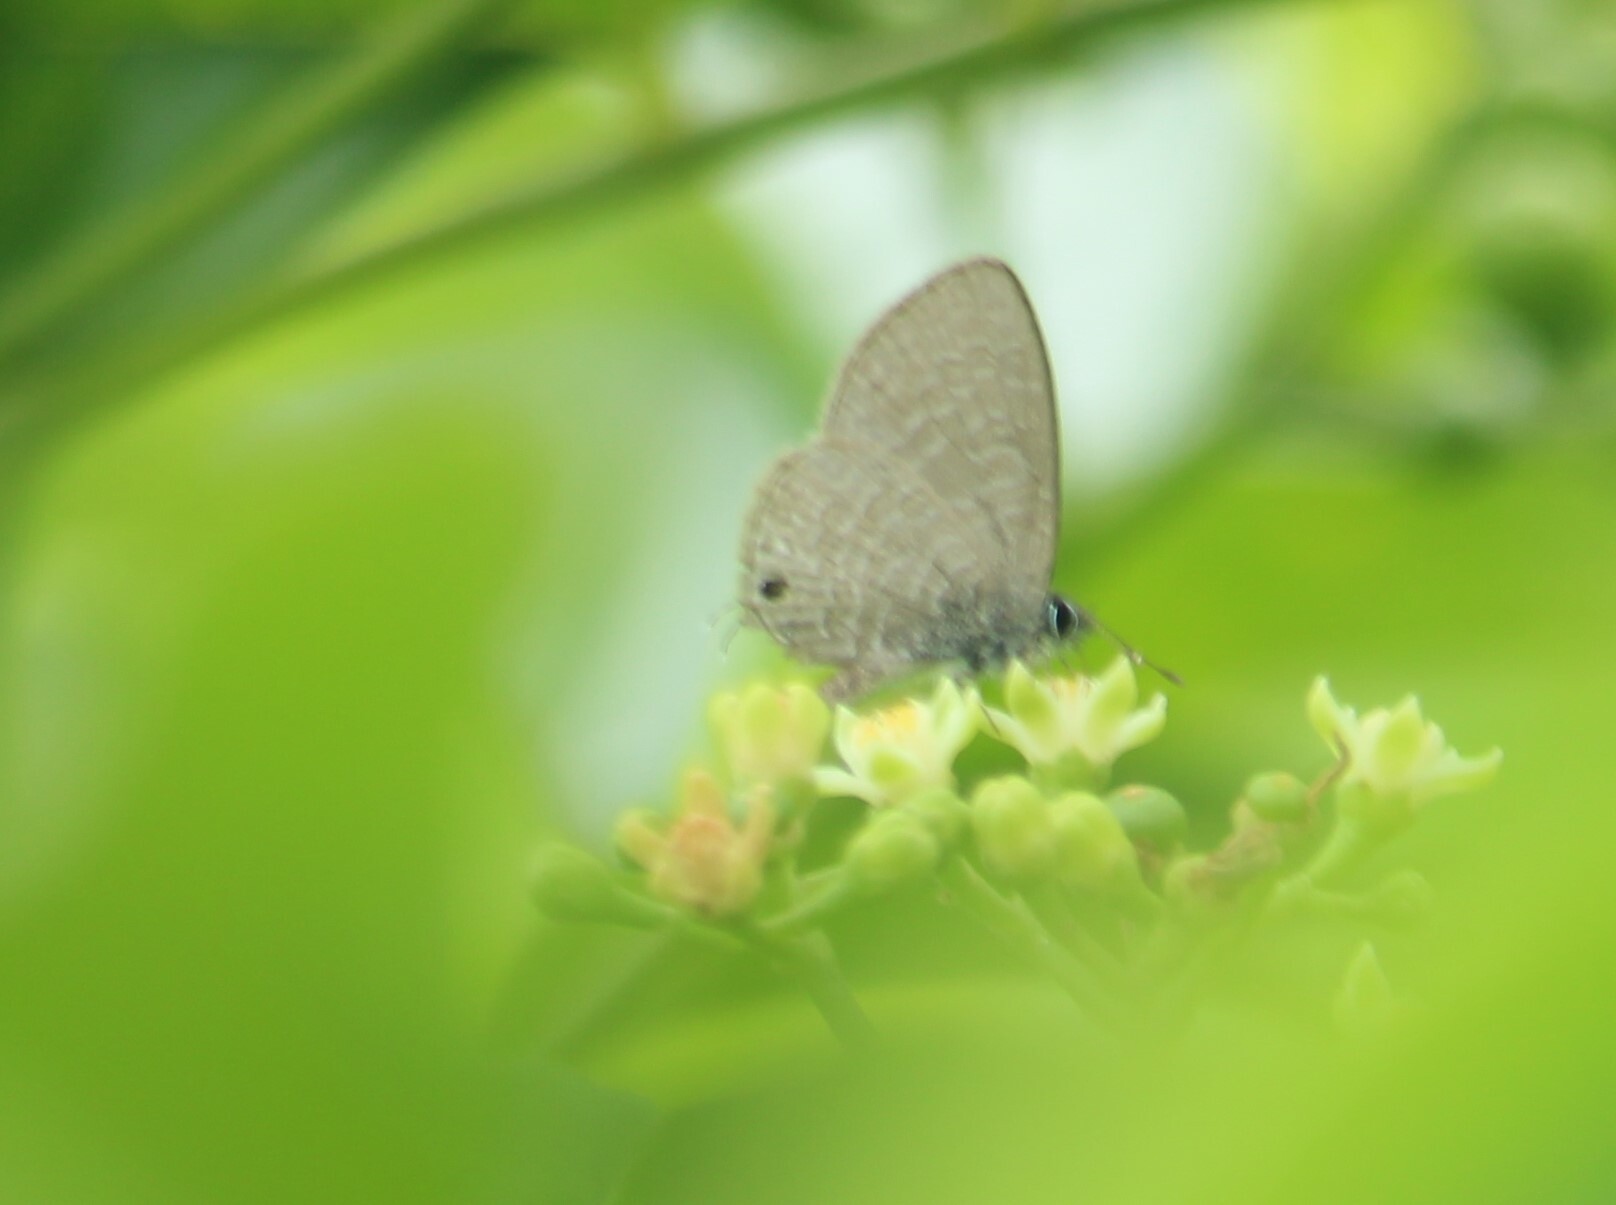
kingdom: Animalia
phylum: Arthropoda
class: Insecta
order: Lepidoptera
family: Lycaenidae
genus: Prosotas
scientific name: Prosotas nora
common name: Common line blue
